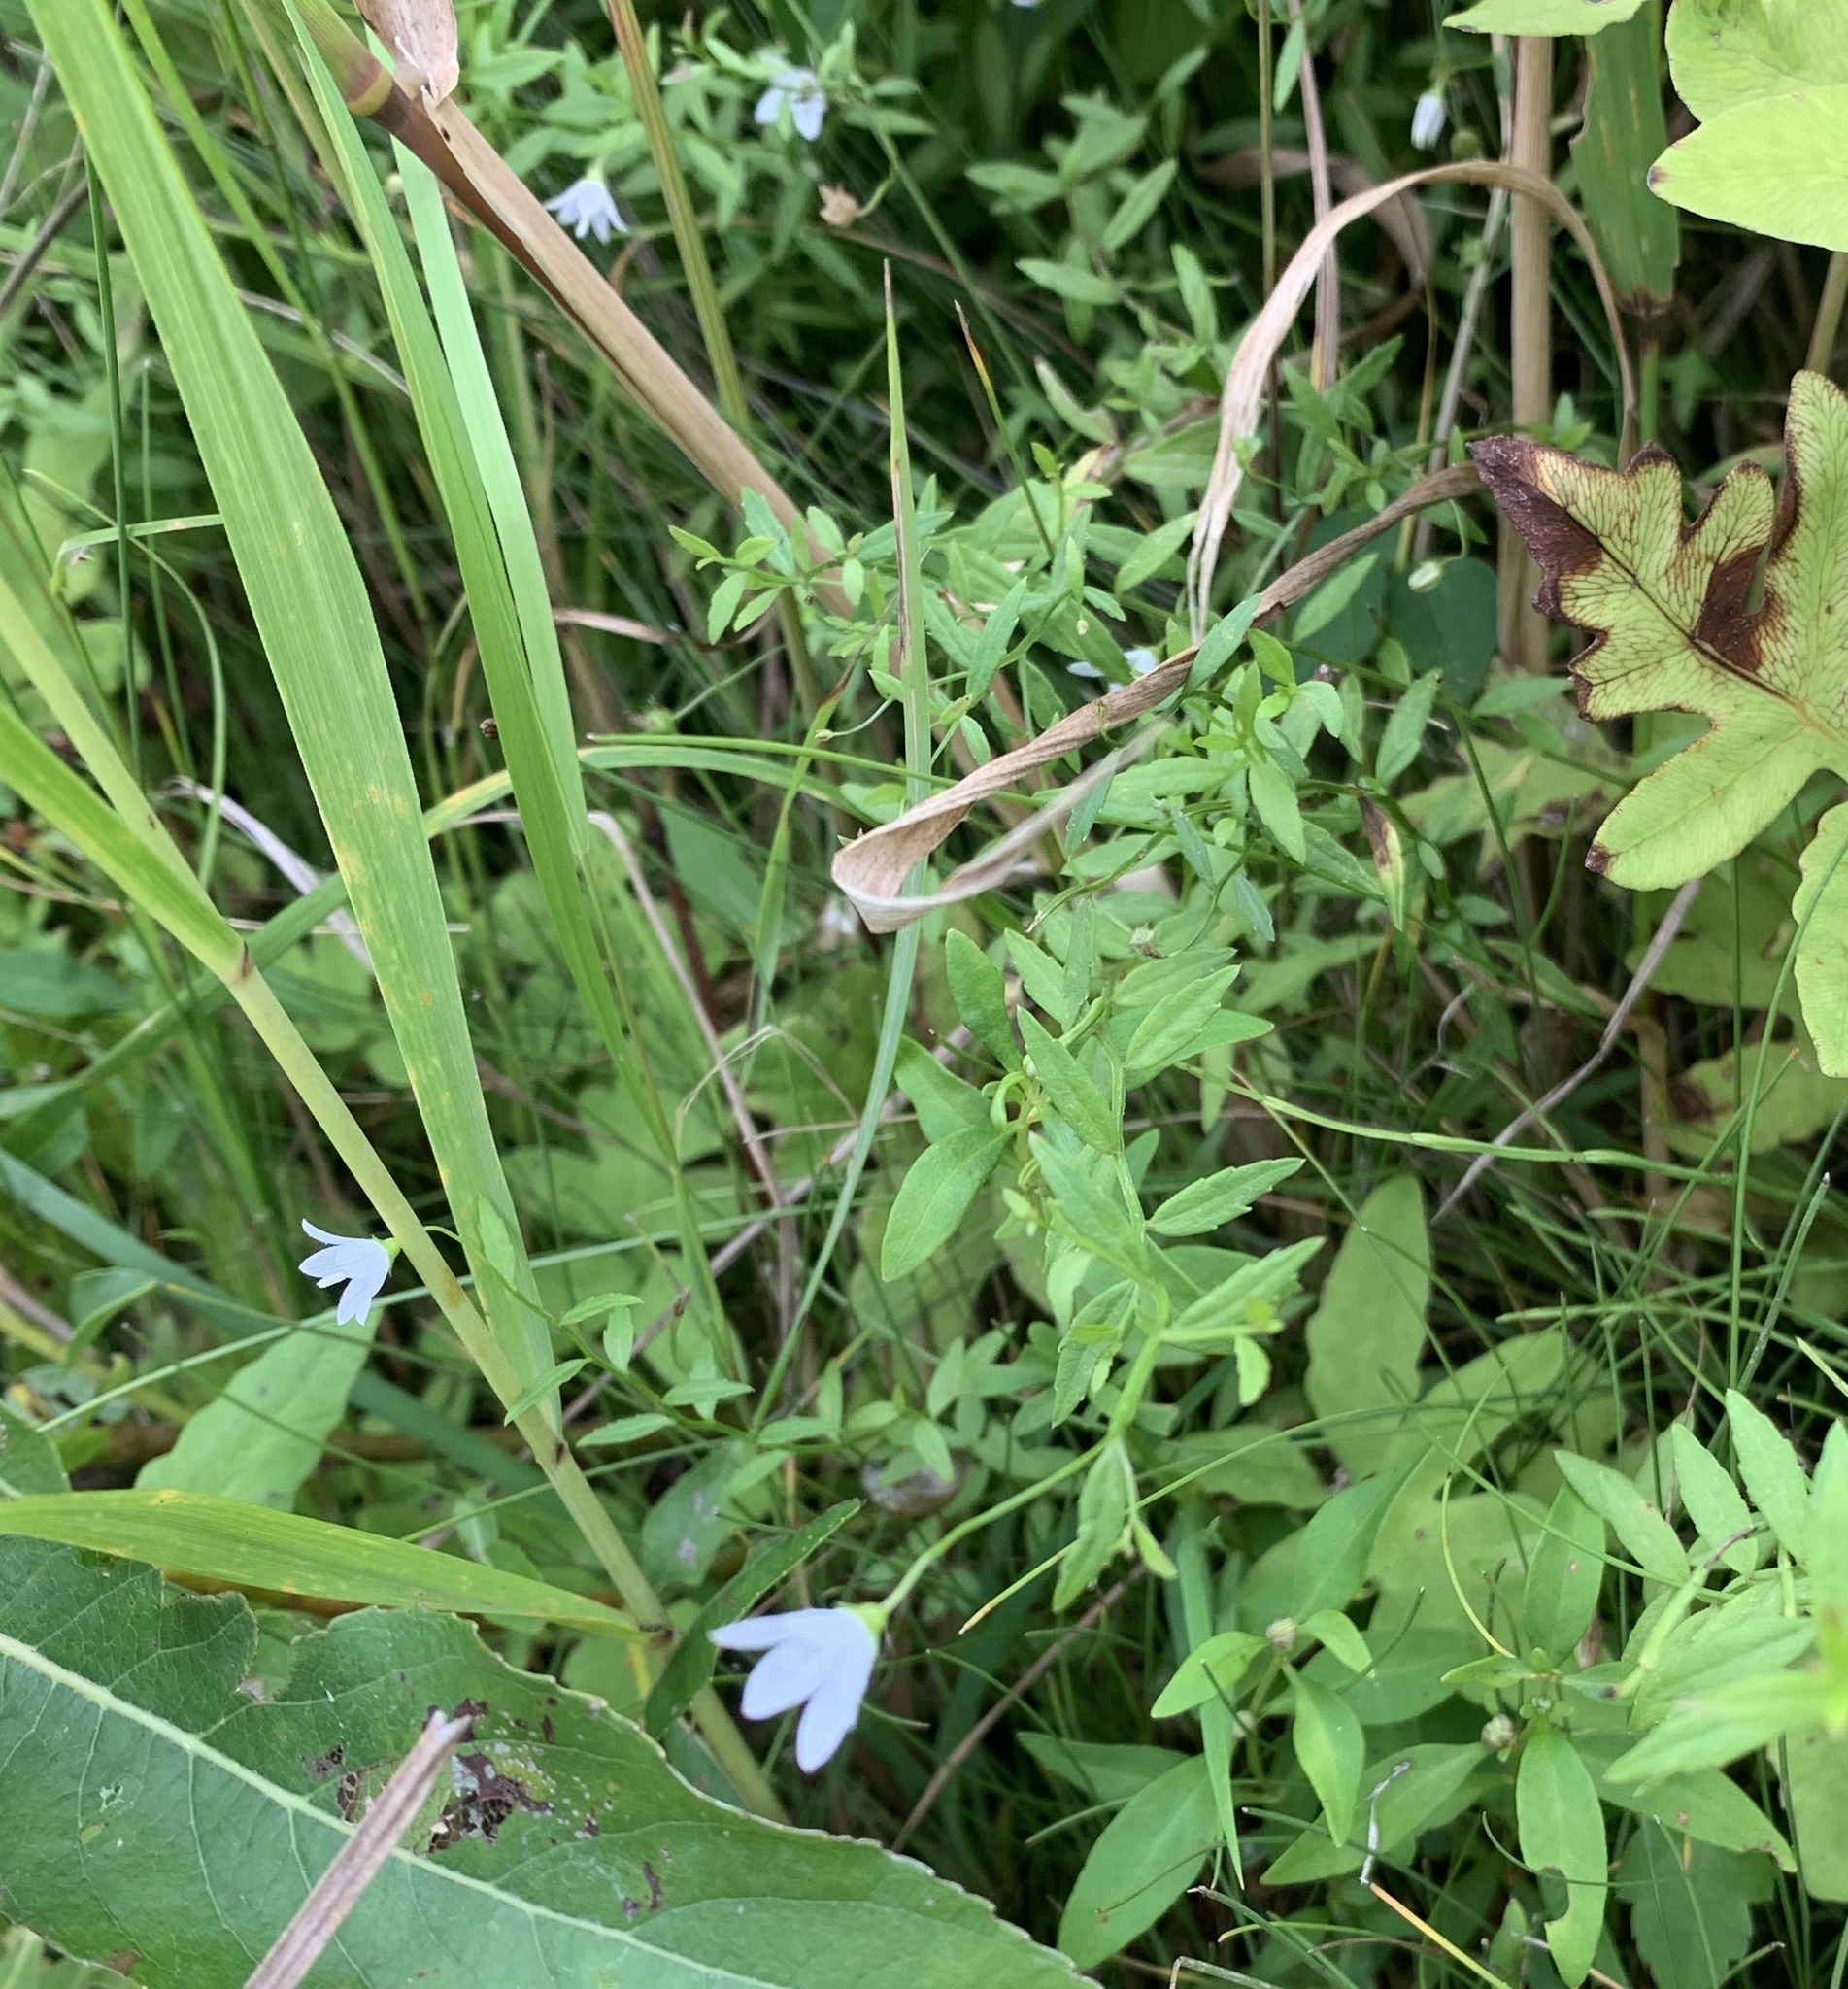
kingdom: Plantae
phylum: Tracheophyta
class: Magnoliopsida
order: Asterales
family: Campanulaceae
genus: Palustricodon
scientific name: Palustricodon aparinoides
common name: Bedstraw bellflower
